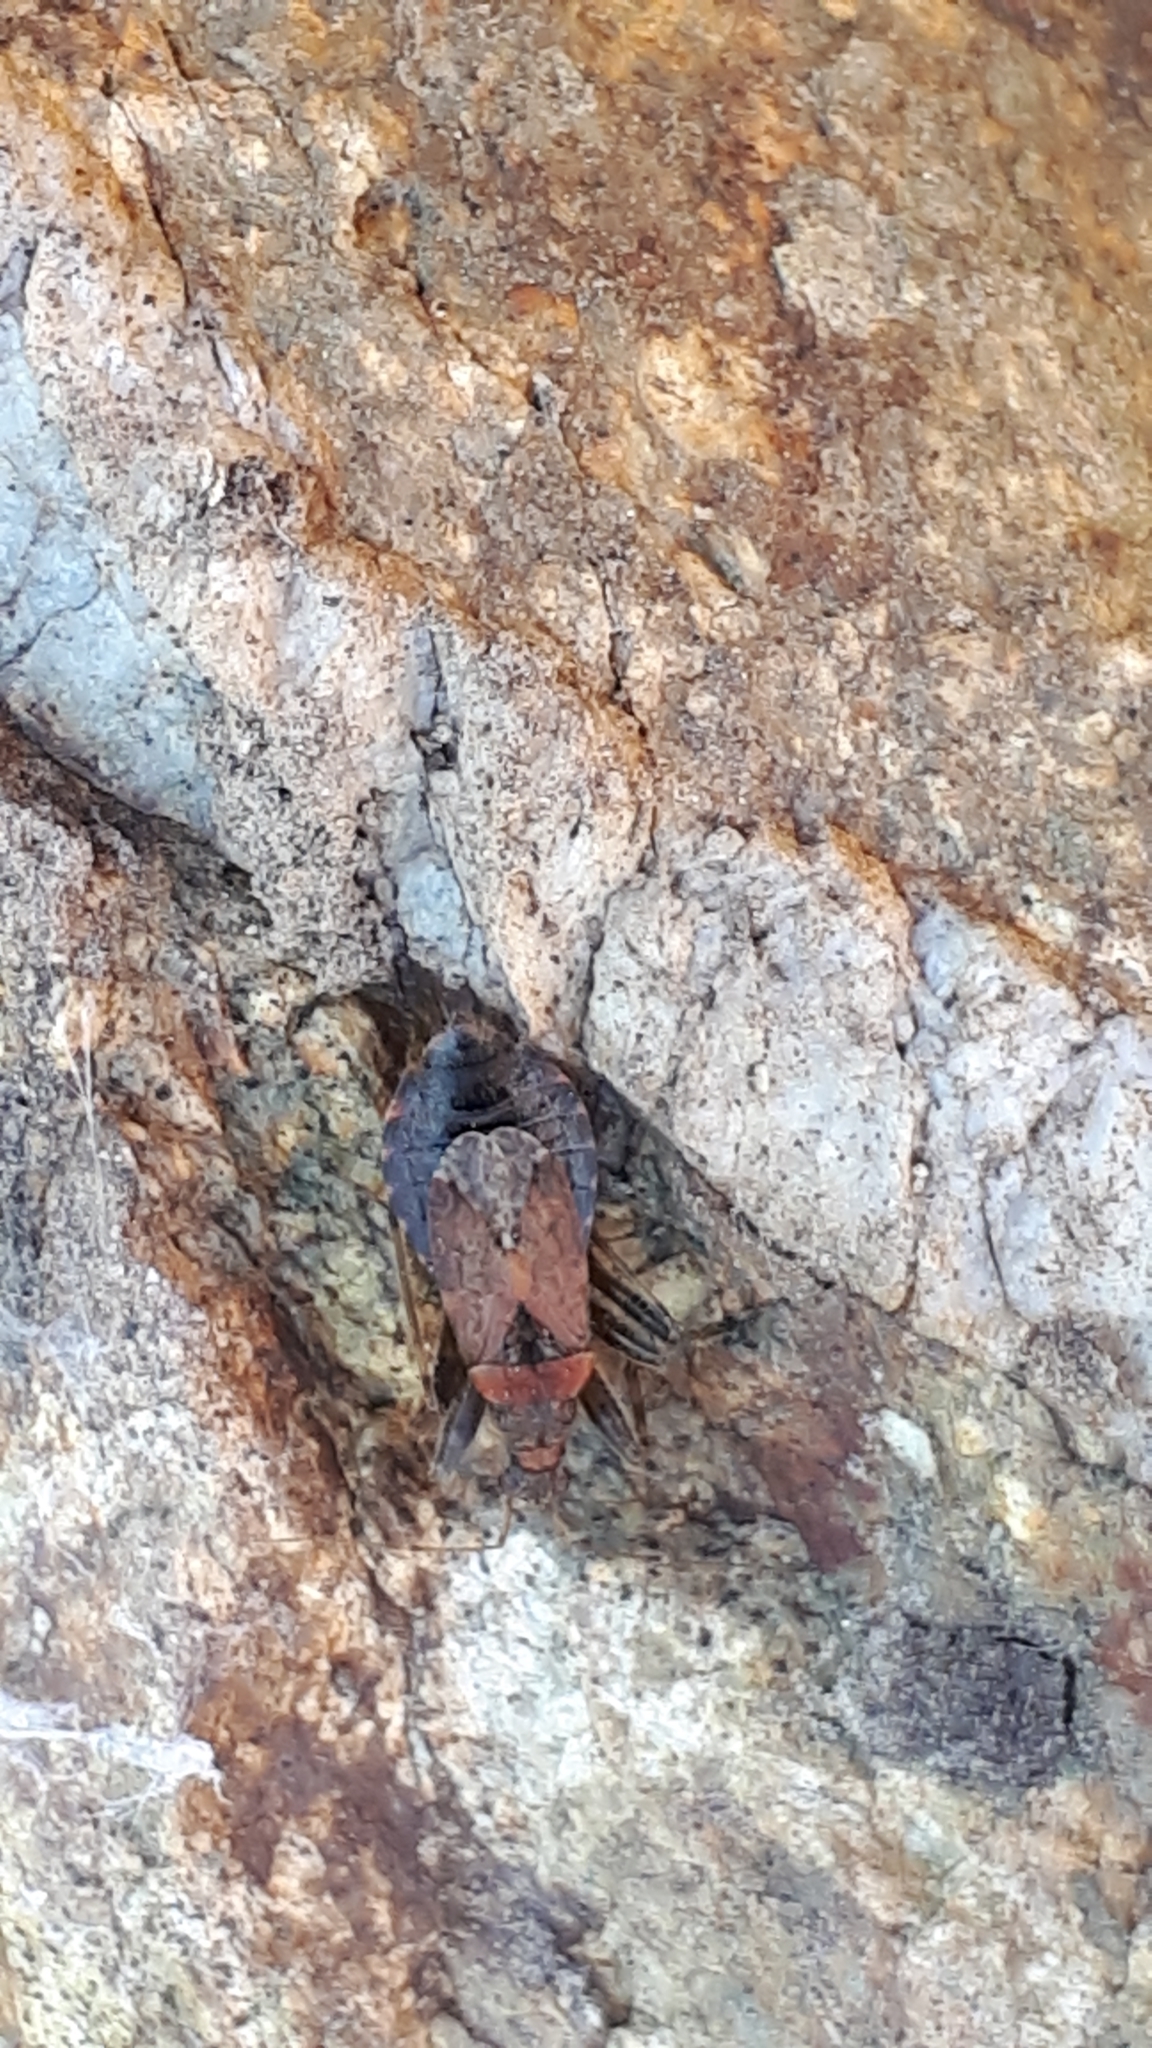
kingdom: Animalia
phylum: Arthropoda
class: Insecta
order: Hemiptera
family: Nabidae
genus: Himacerus
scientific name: Himacerus mirmicoides
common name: Ant damsel bug
